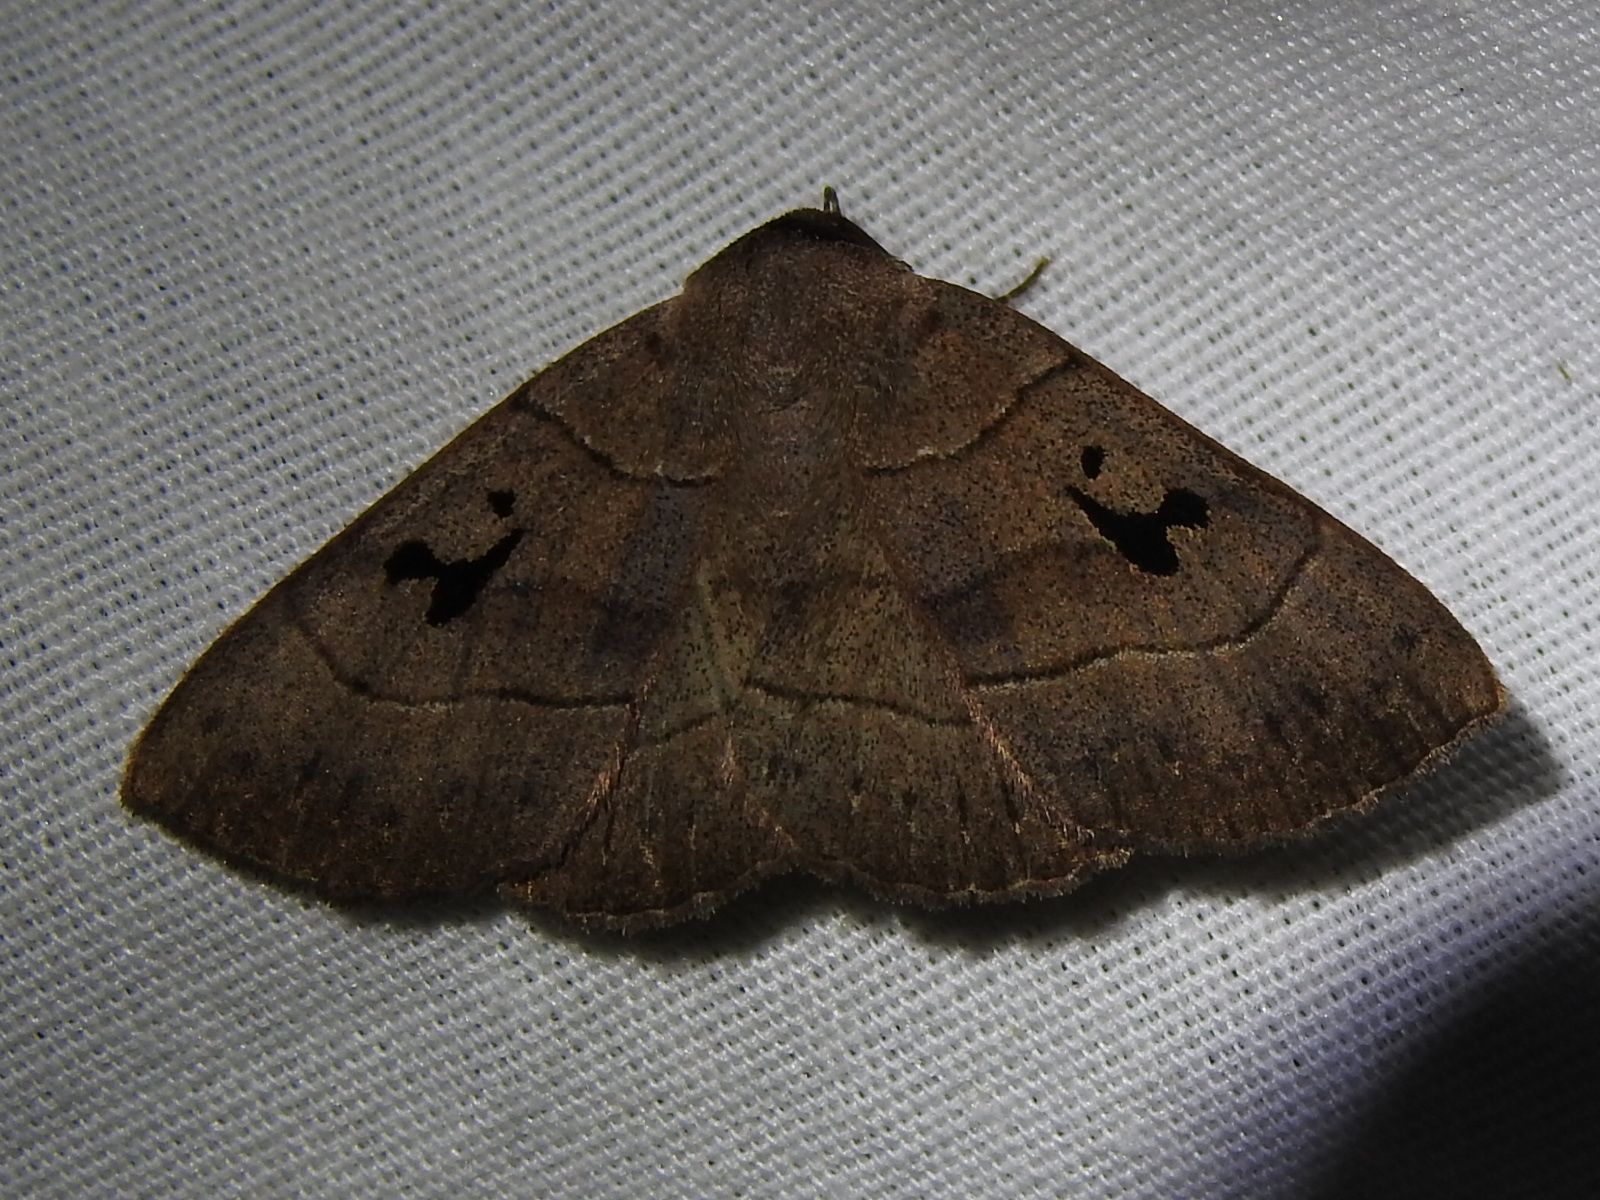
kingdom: Animalia
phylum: Arthropoda
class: Insecta
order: Lepidoptera
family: Erebidae
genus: Panopoda
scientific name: Panopoda carneicosta
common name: Brown panopoda moth
